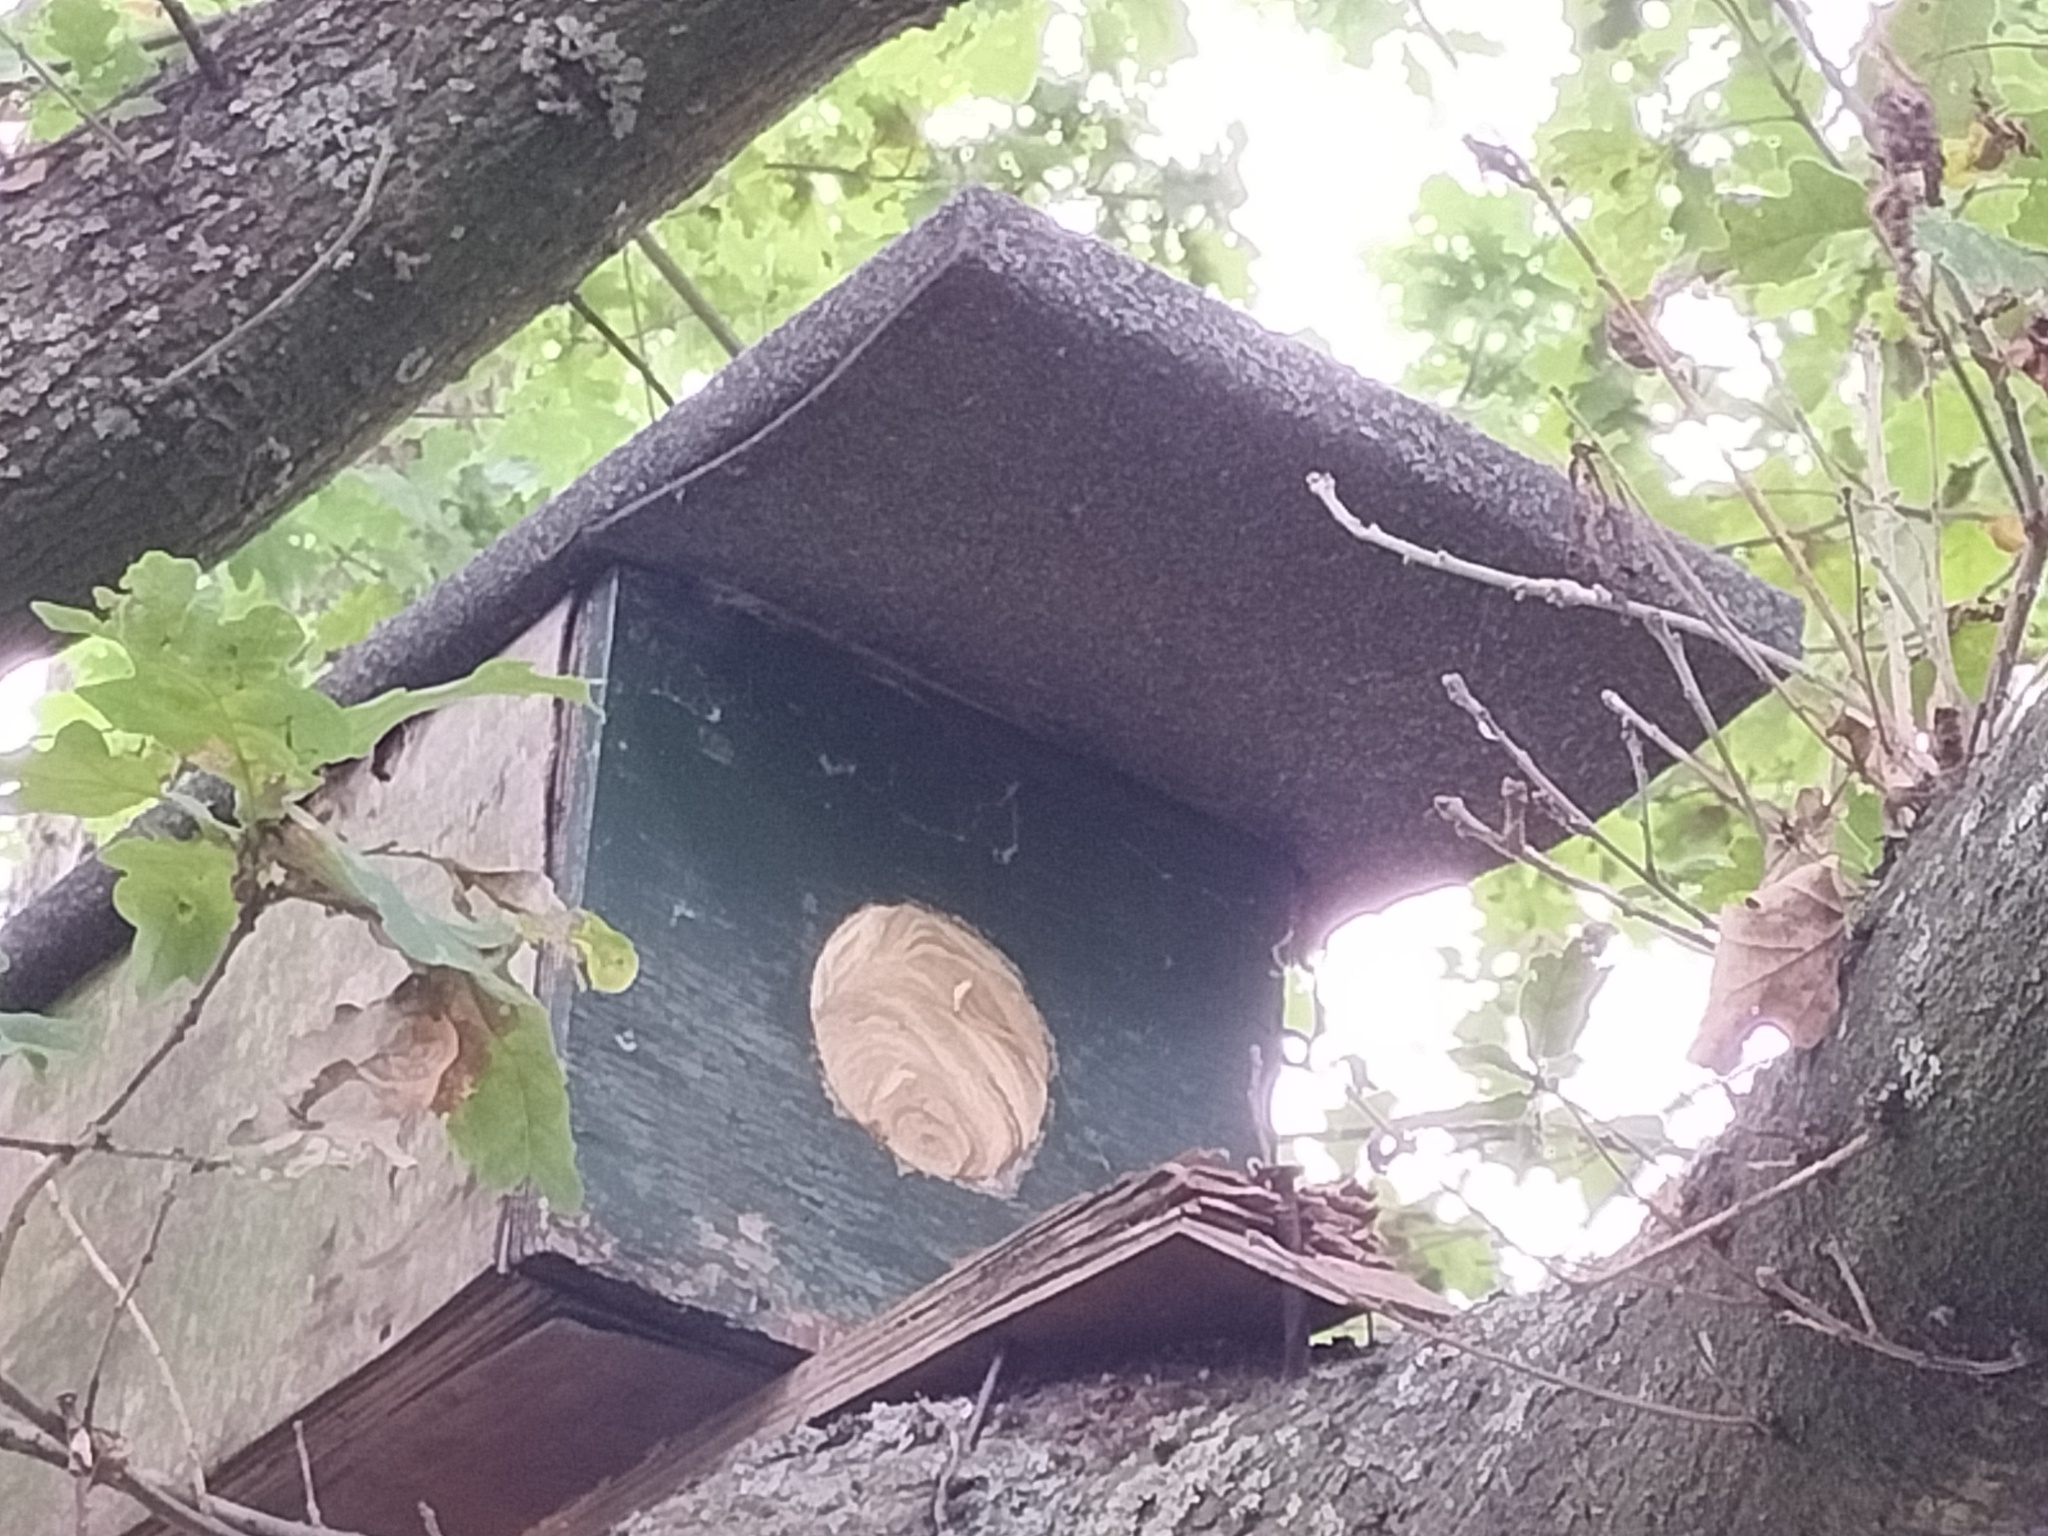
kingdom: Animalia
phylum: Arthropoda
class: Insecta
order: Hymenoptera
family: Vespidae
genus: Vespa
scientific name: Vespa crabro
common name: Hornet
